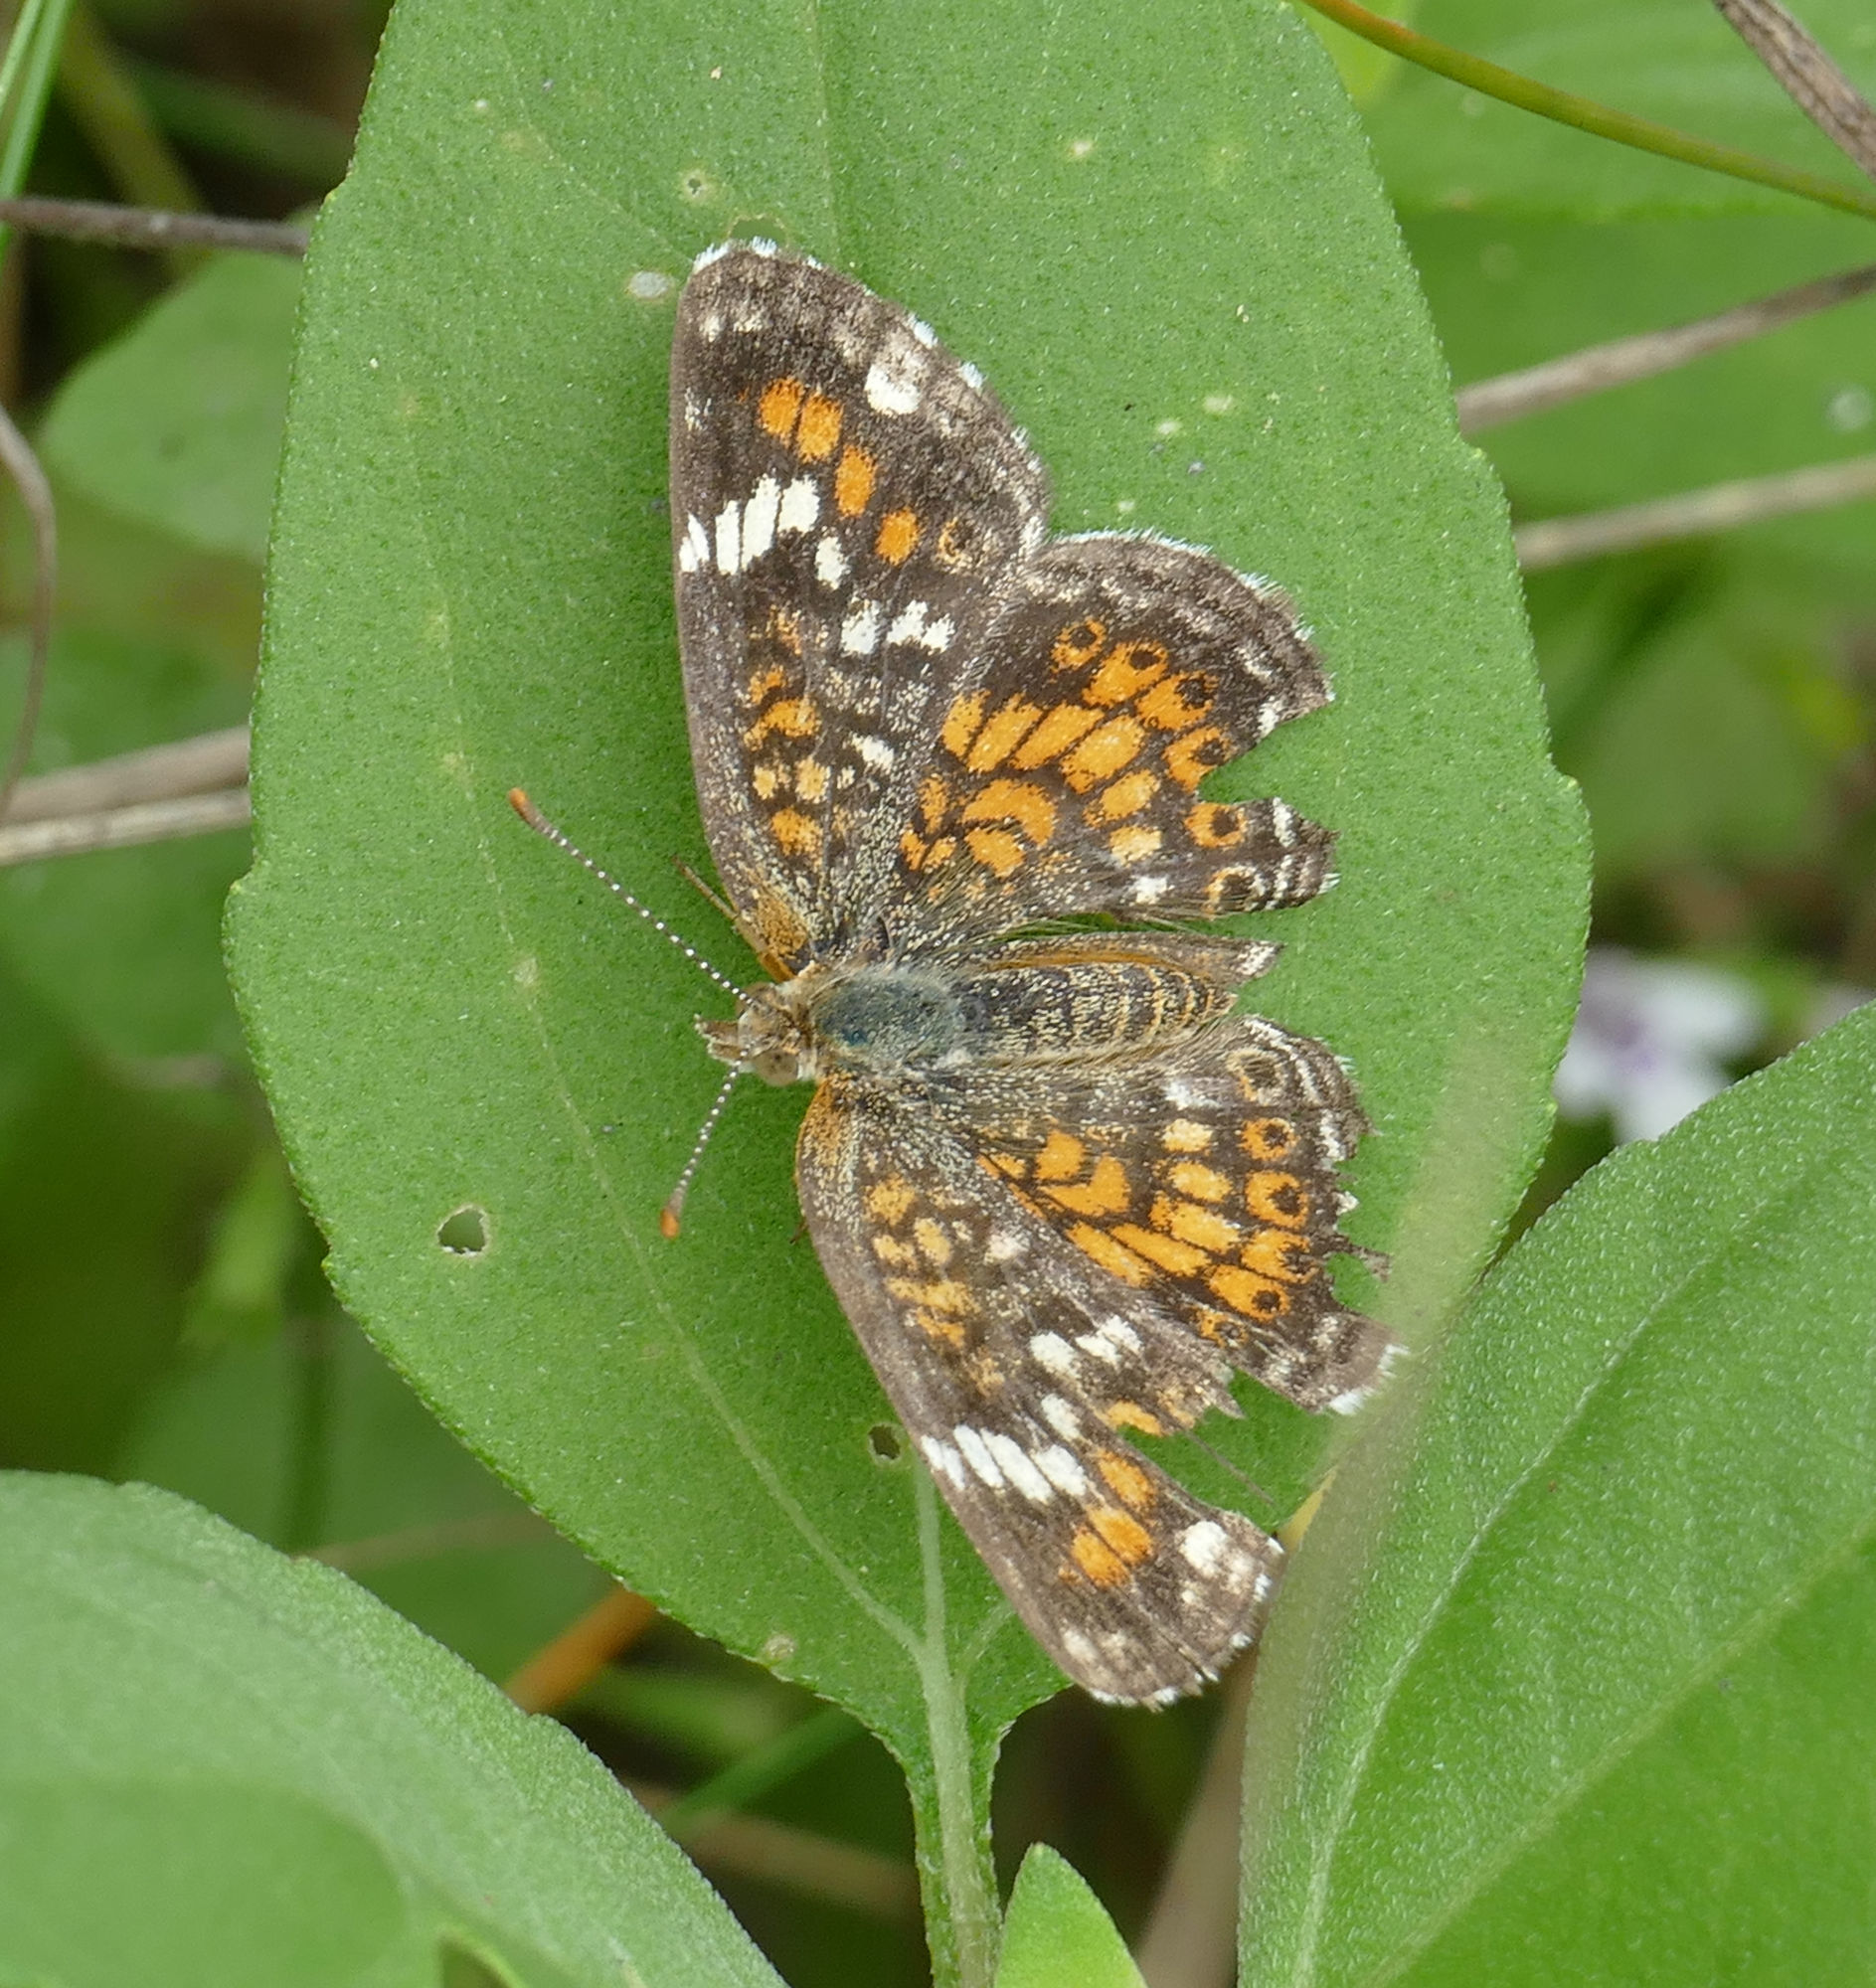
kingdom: Animalia
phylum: Arthropoda
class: Insecta
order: Lepidoptera
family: Nymphalidae
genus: Phyciodes
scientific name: Phyciodes phaon
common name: Phaon crescent
